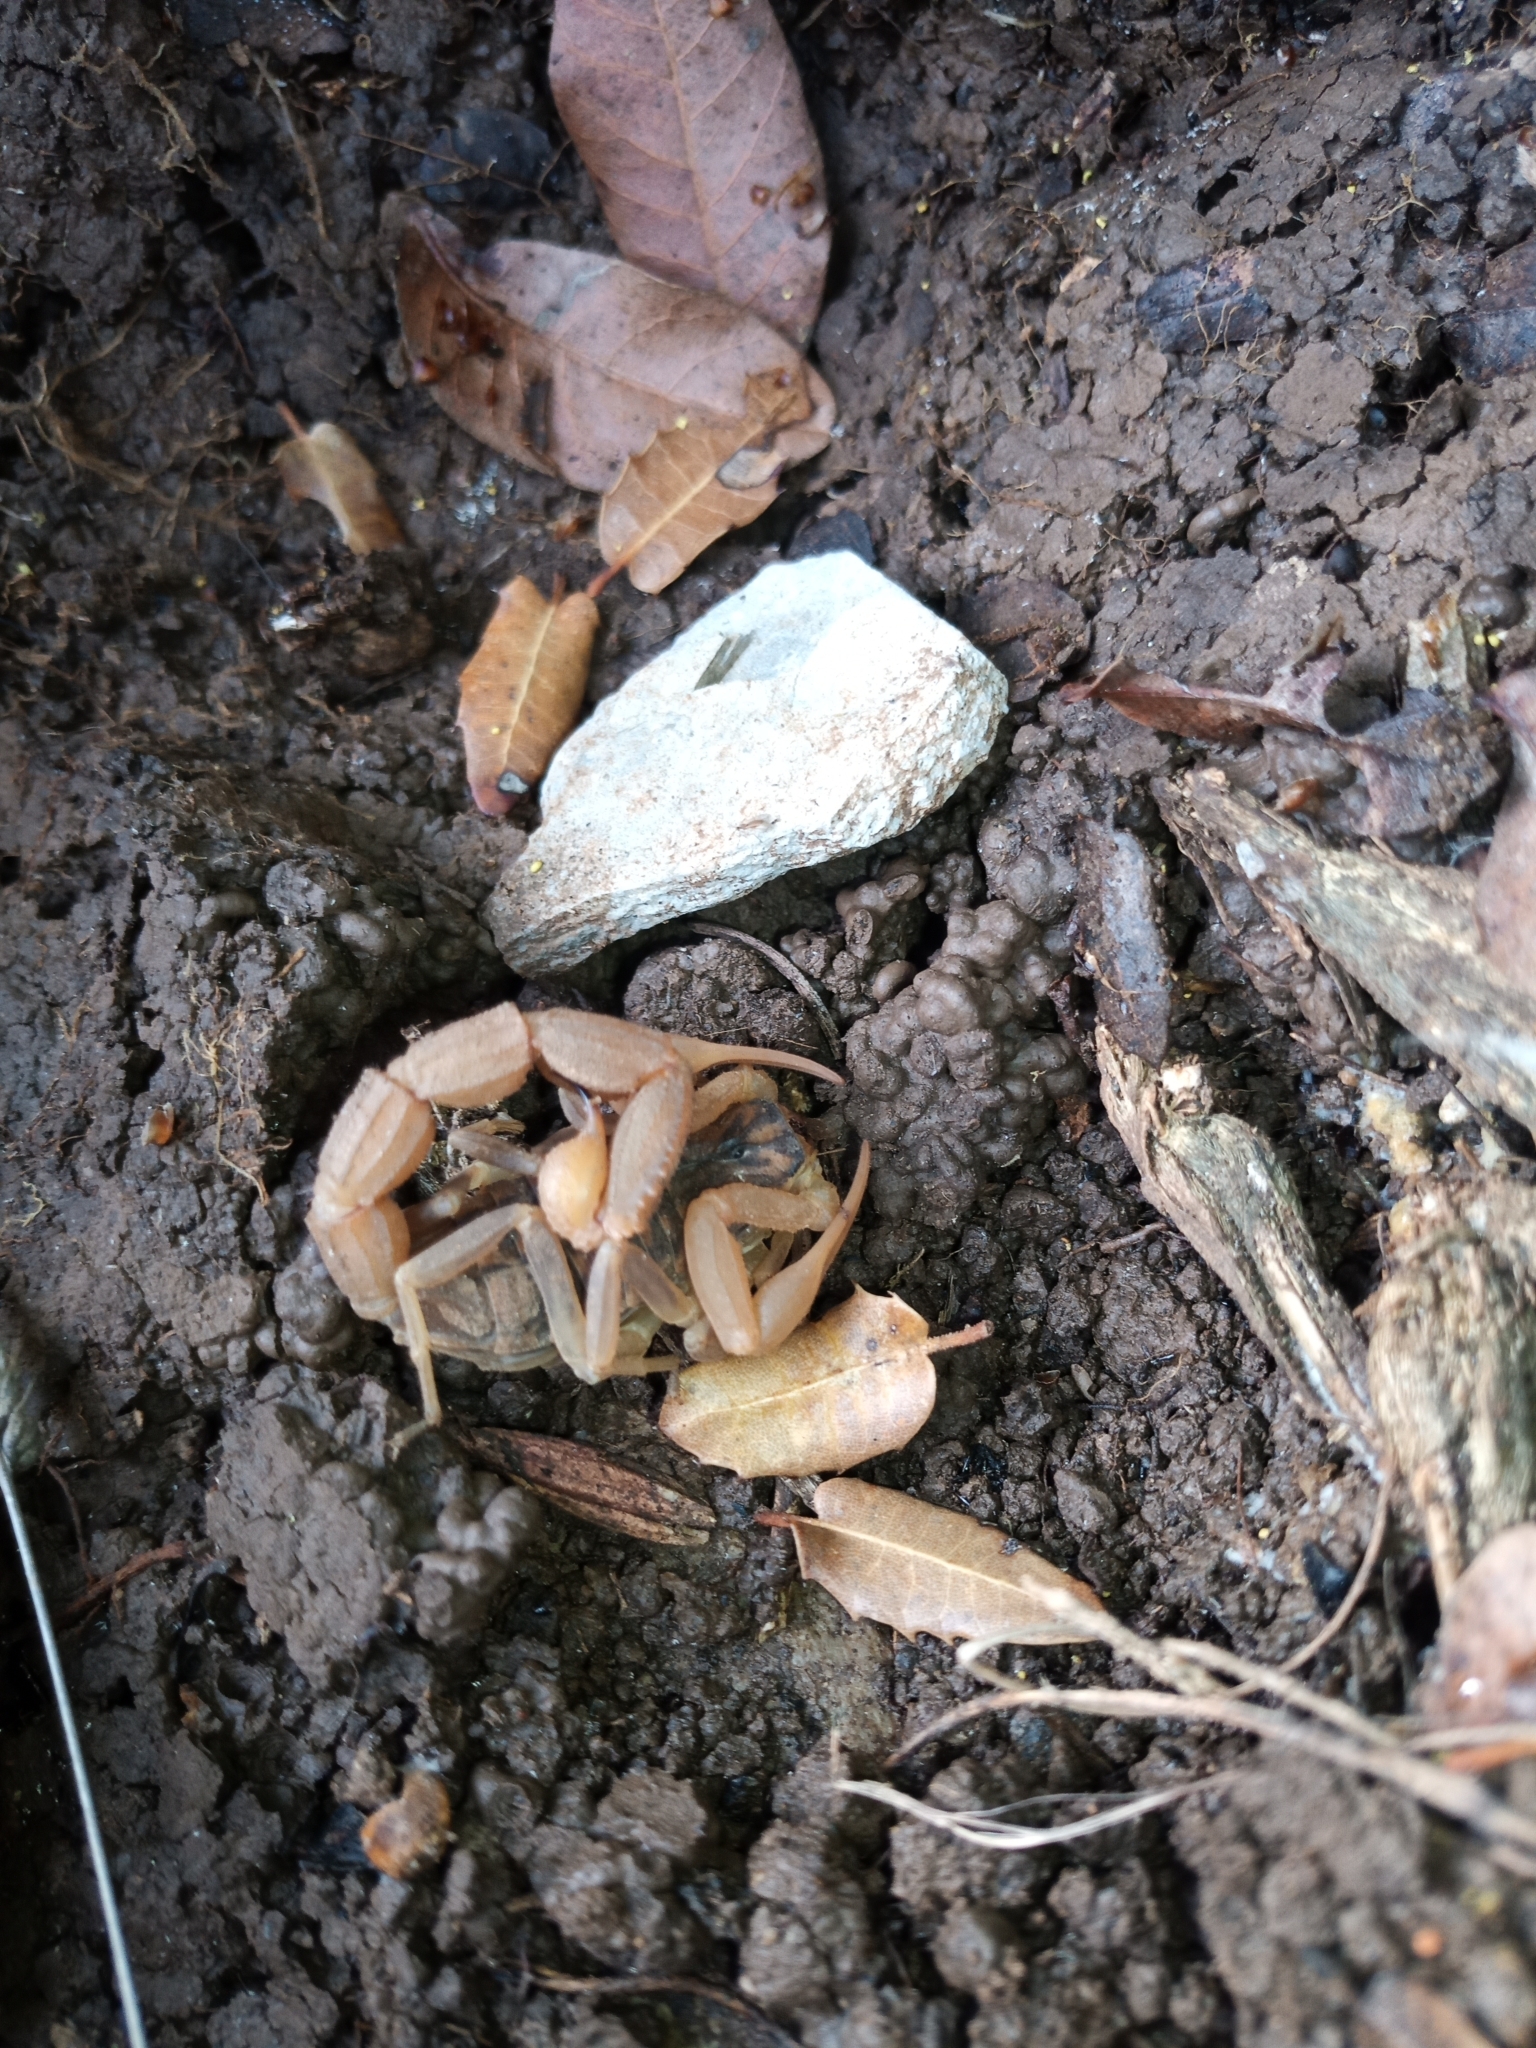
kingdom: Animalia
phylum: Arthropoda
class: Arachnida
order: Scorpiones
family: Buthidae
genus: Aegaeobuthus
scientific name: Aegaeobuthus gibbosus
